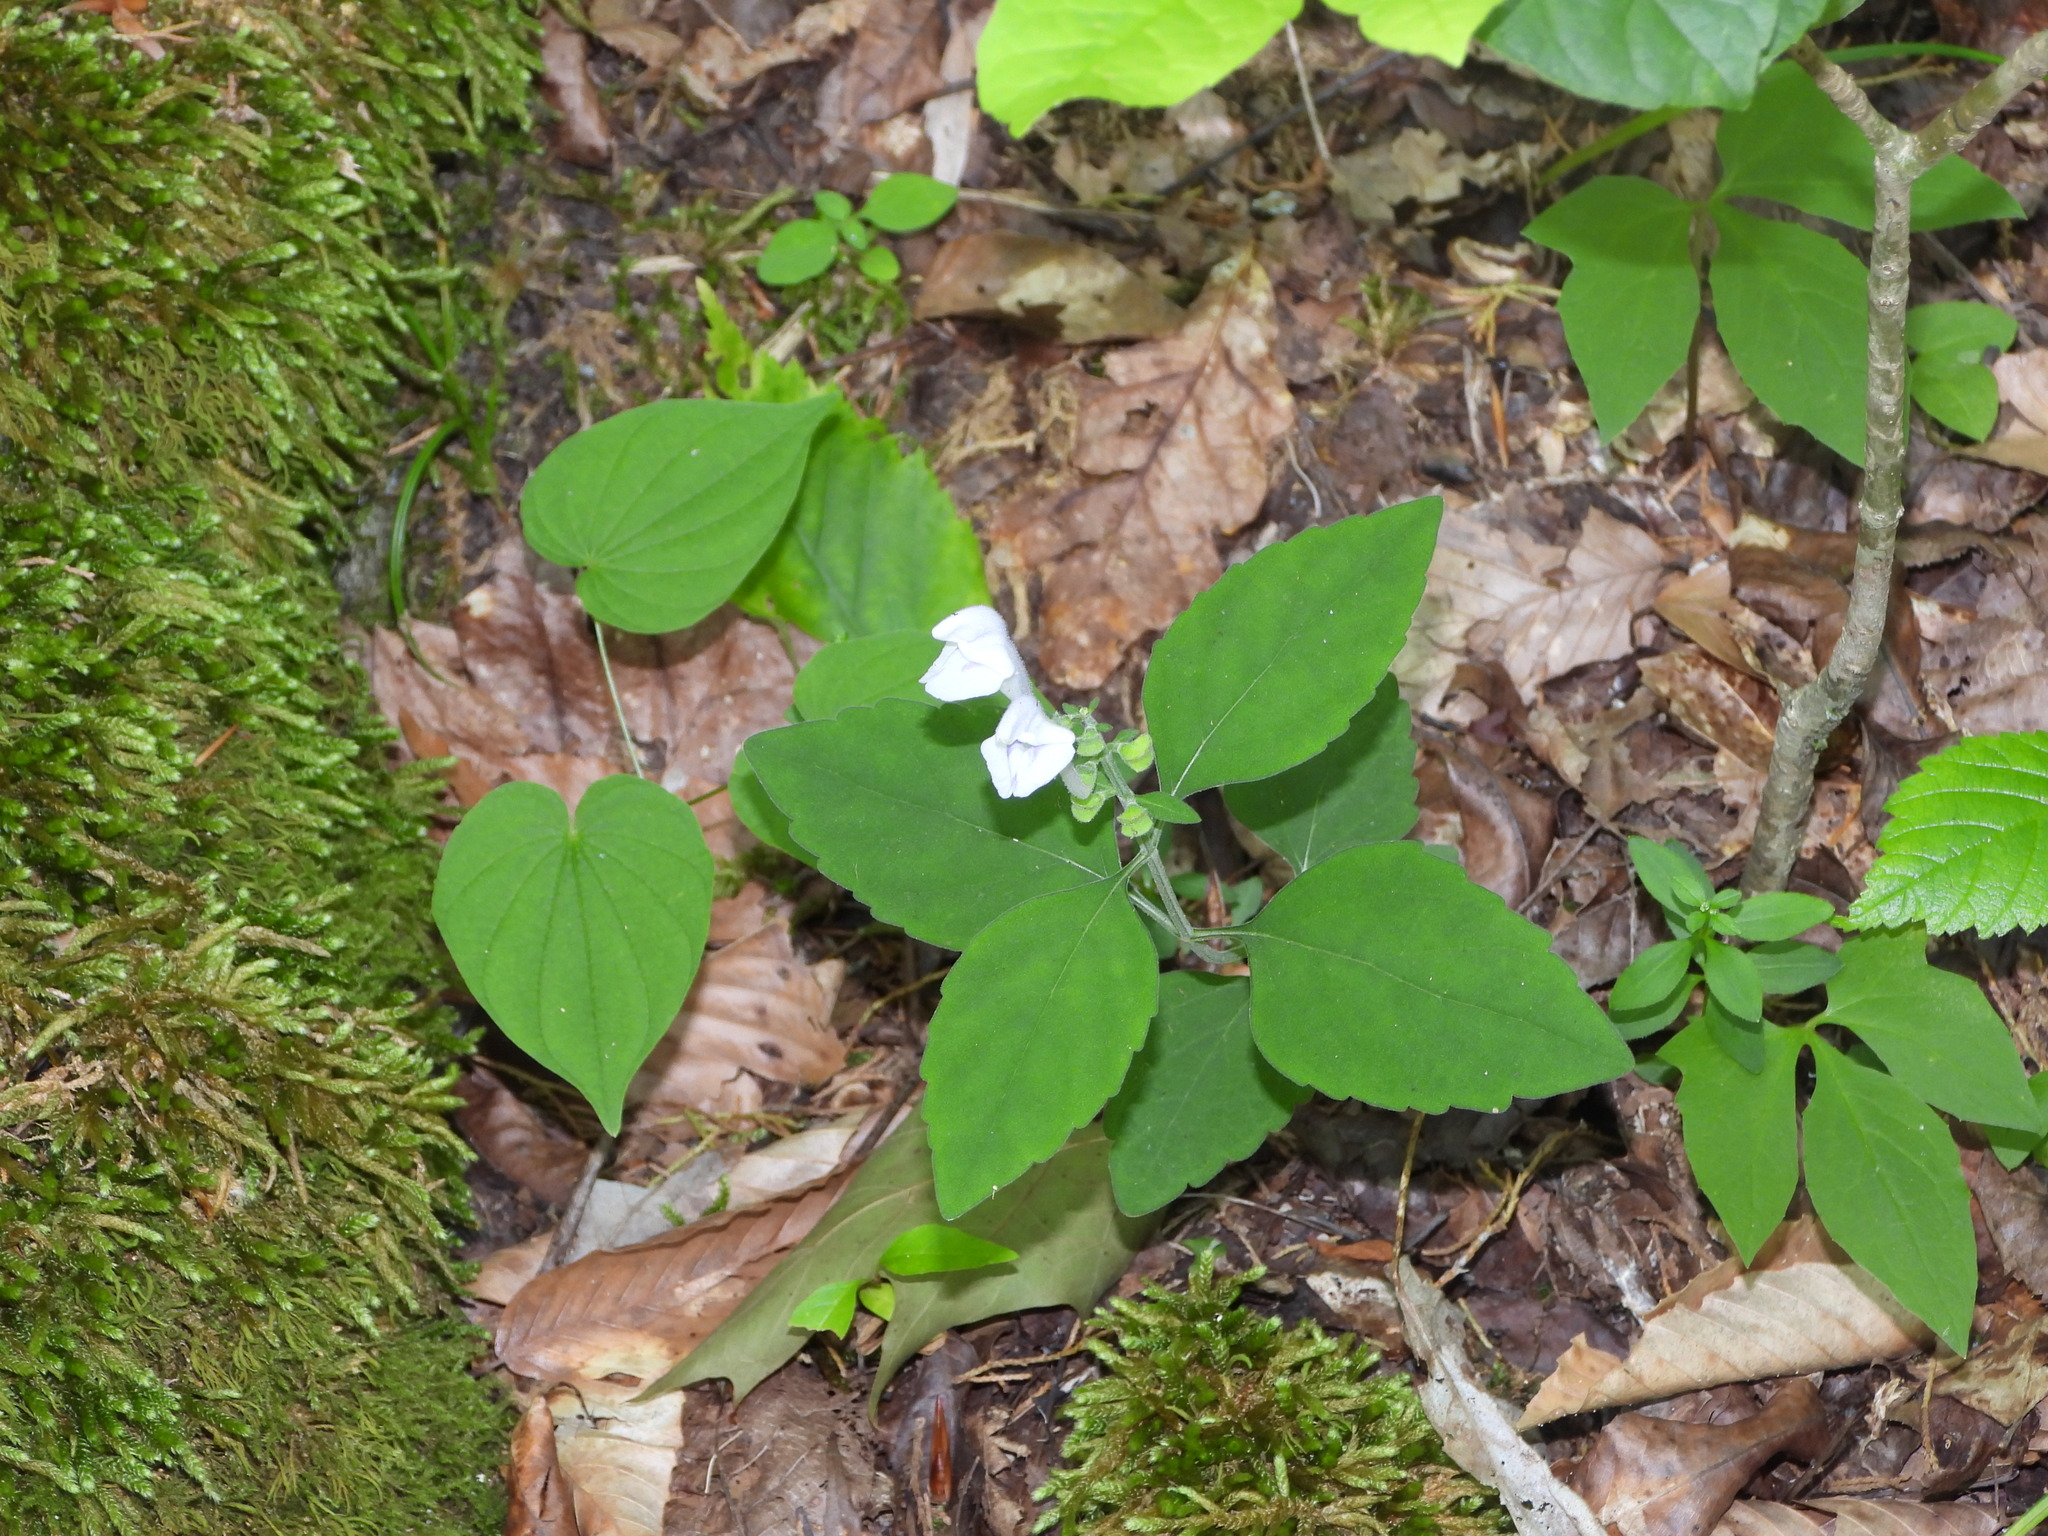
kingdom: Plantae
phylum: Tracheophyta
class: Magnoliopsida
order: Lamiales
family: Lamiaceae
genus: Scutellaria
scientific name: Scutellaria pseudoserrata
